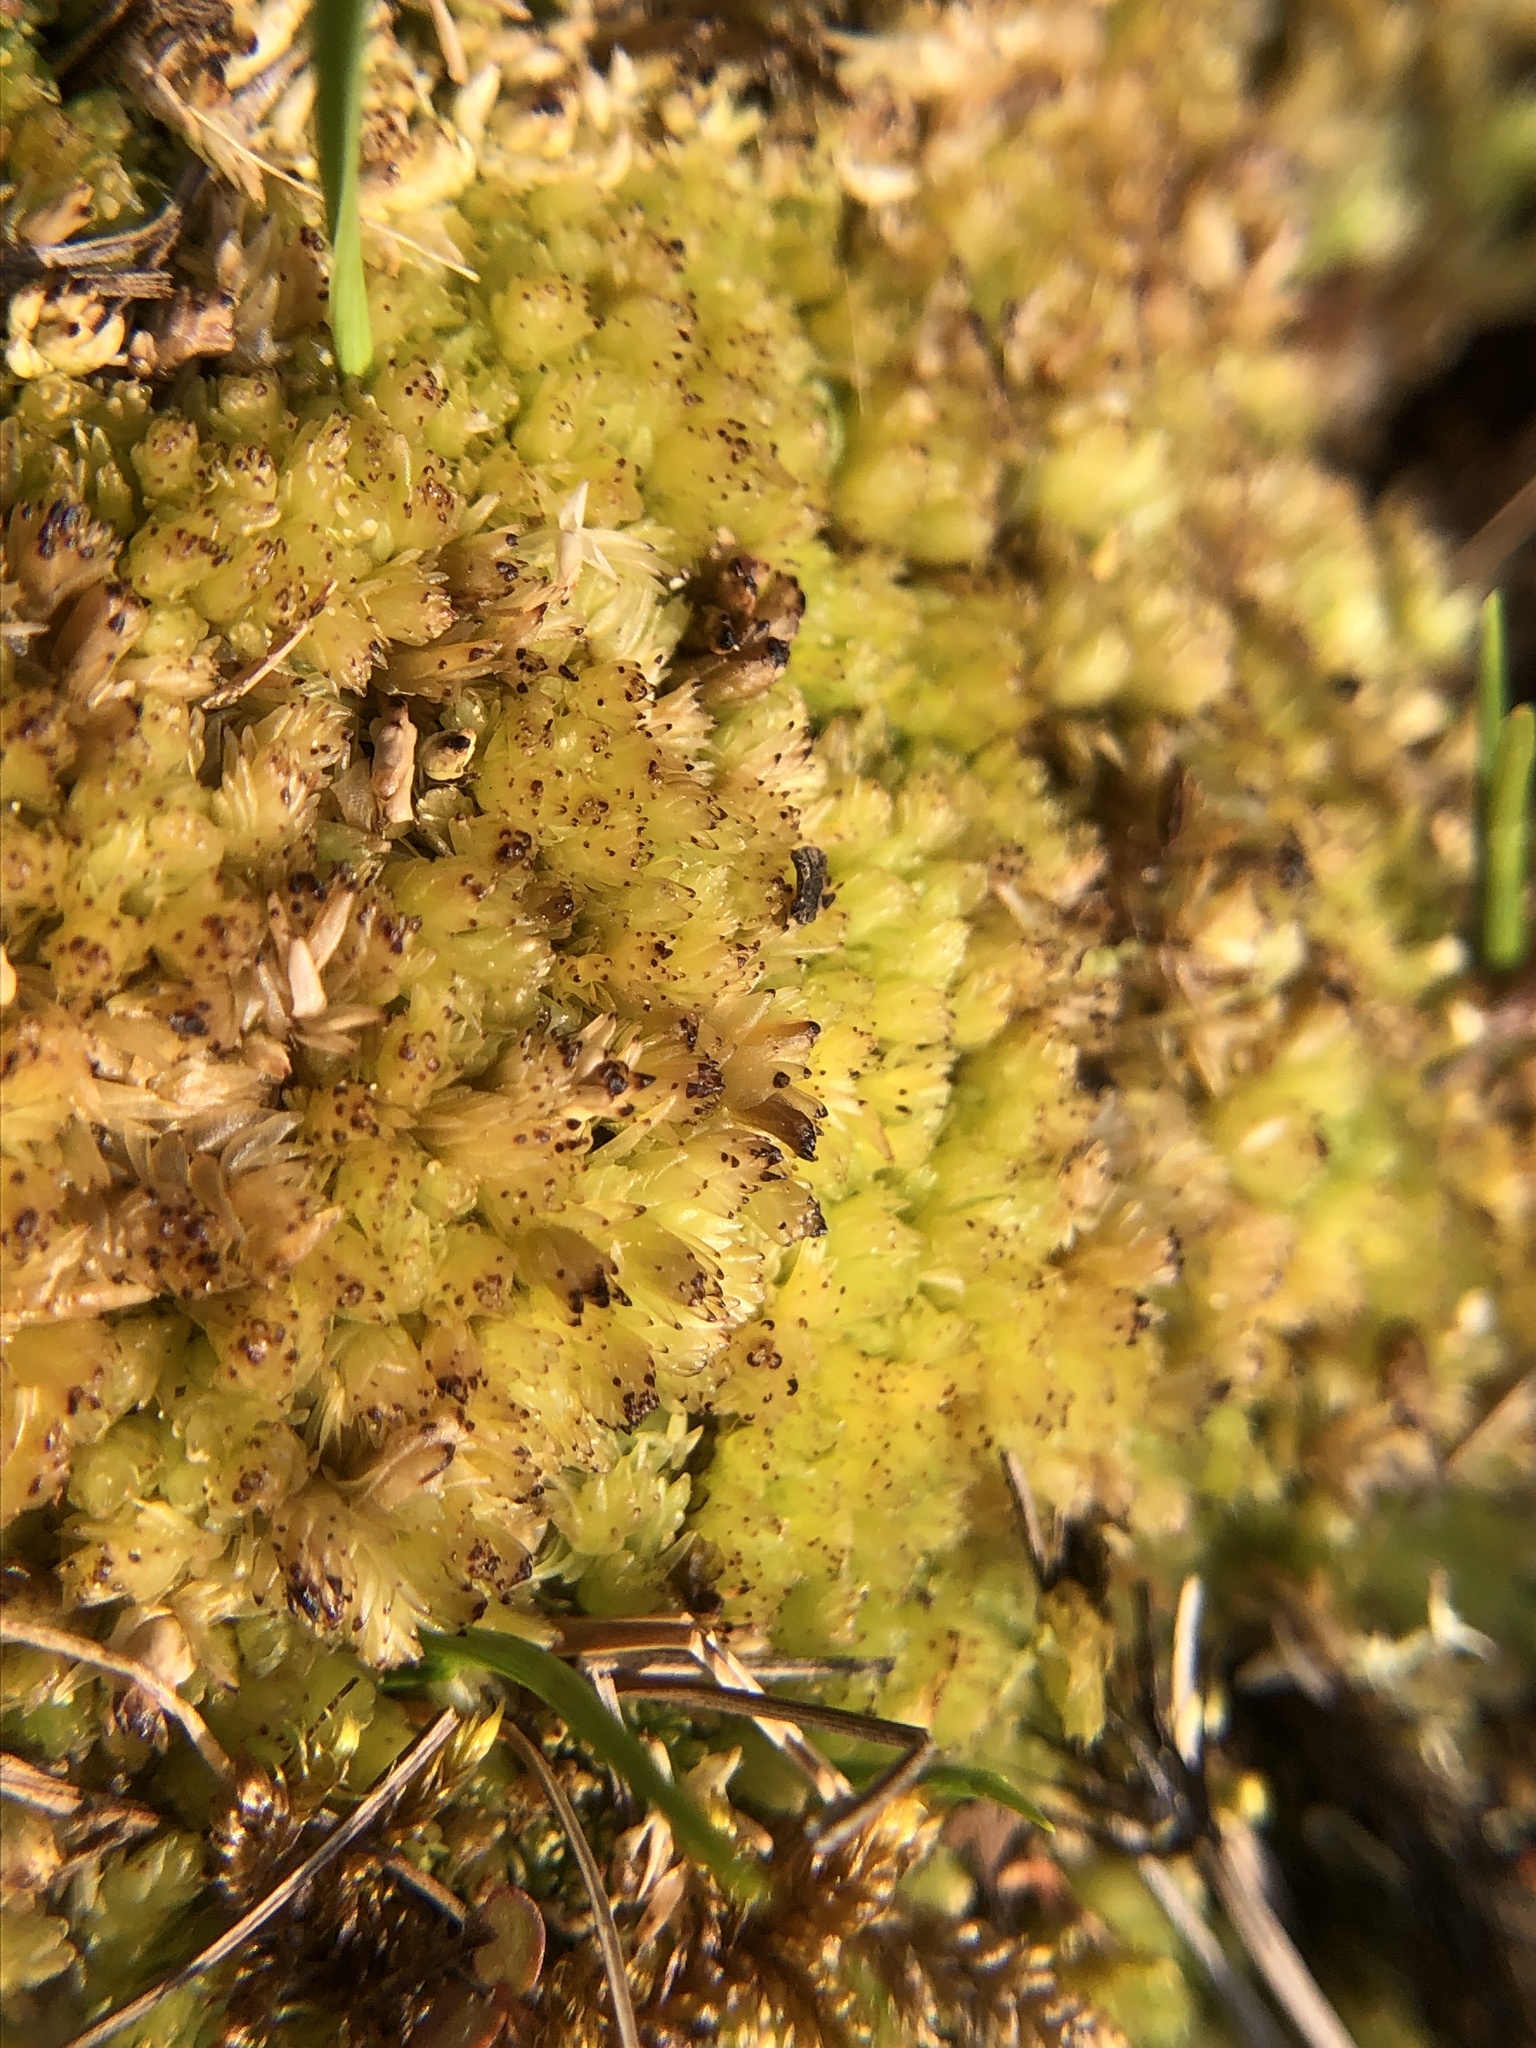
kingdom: Plantae
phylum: Bryophyta
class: Sphagnopsida
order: Sphagnales
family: Sphagnaceae
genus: Sphagnum
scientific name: Sphagnum compactum
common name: Compact peat moss
